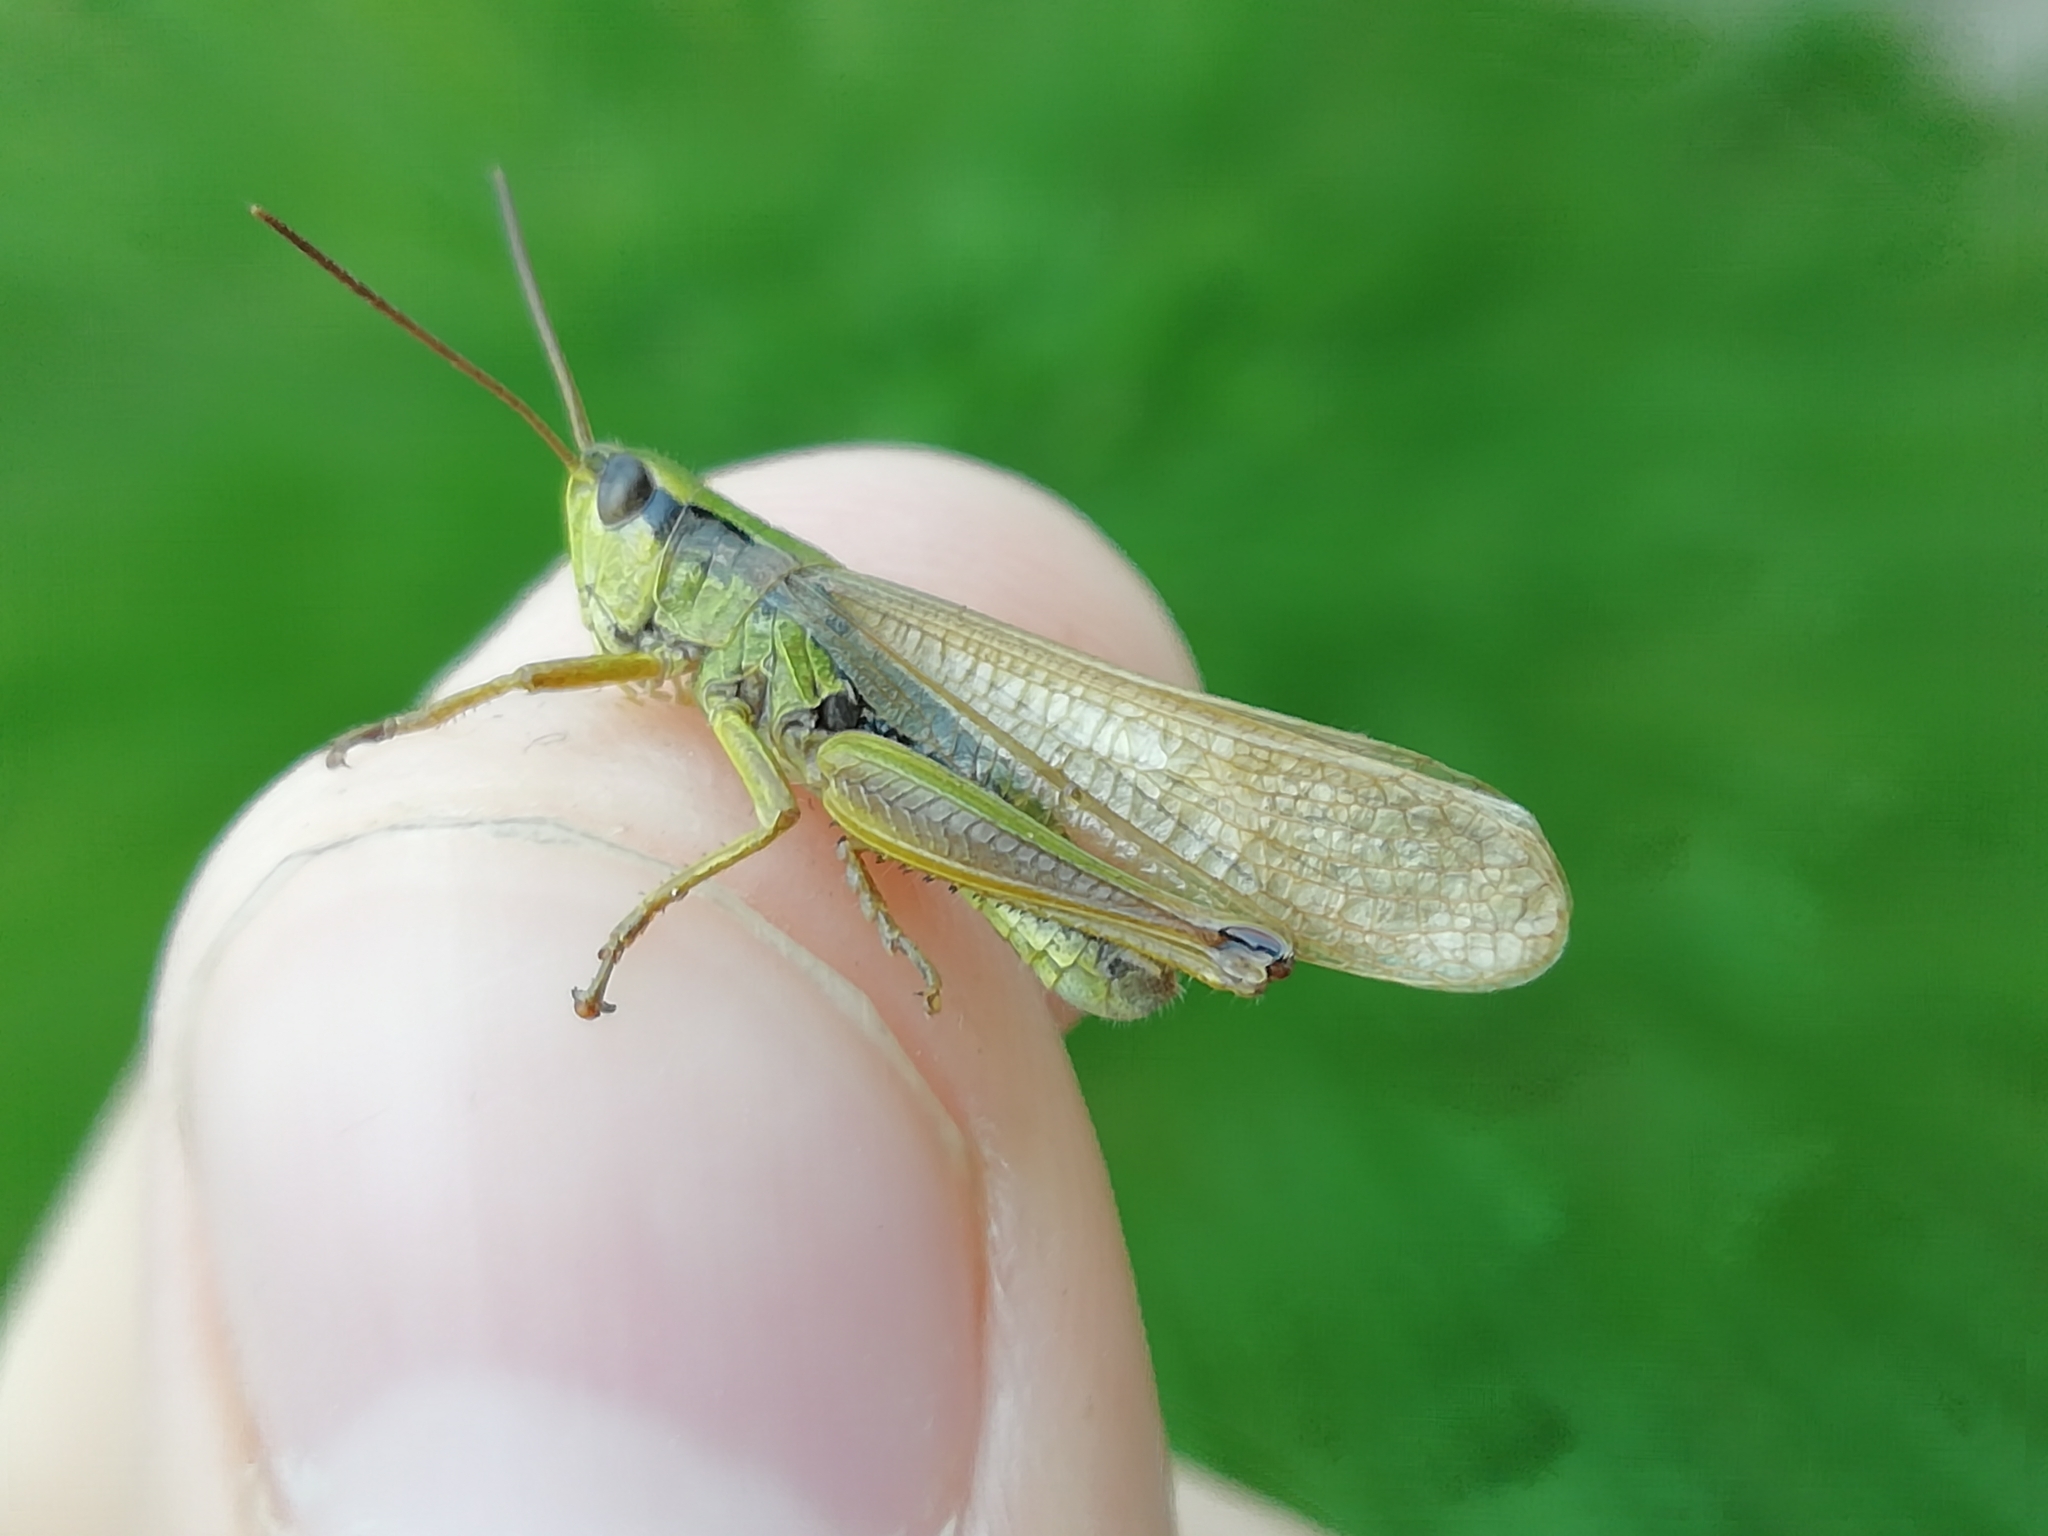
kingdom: Animalia
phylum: Arthropoda
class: Insecta
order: Orthoptera
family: Acrididae
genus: Chorthippus
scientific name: Chorthippus fallax
